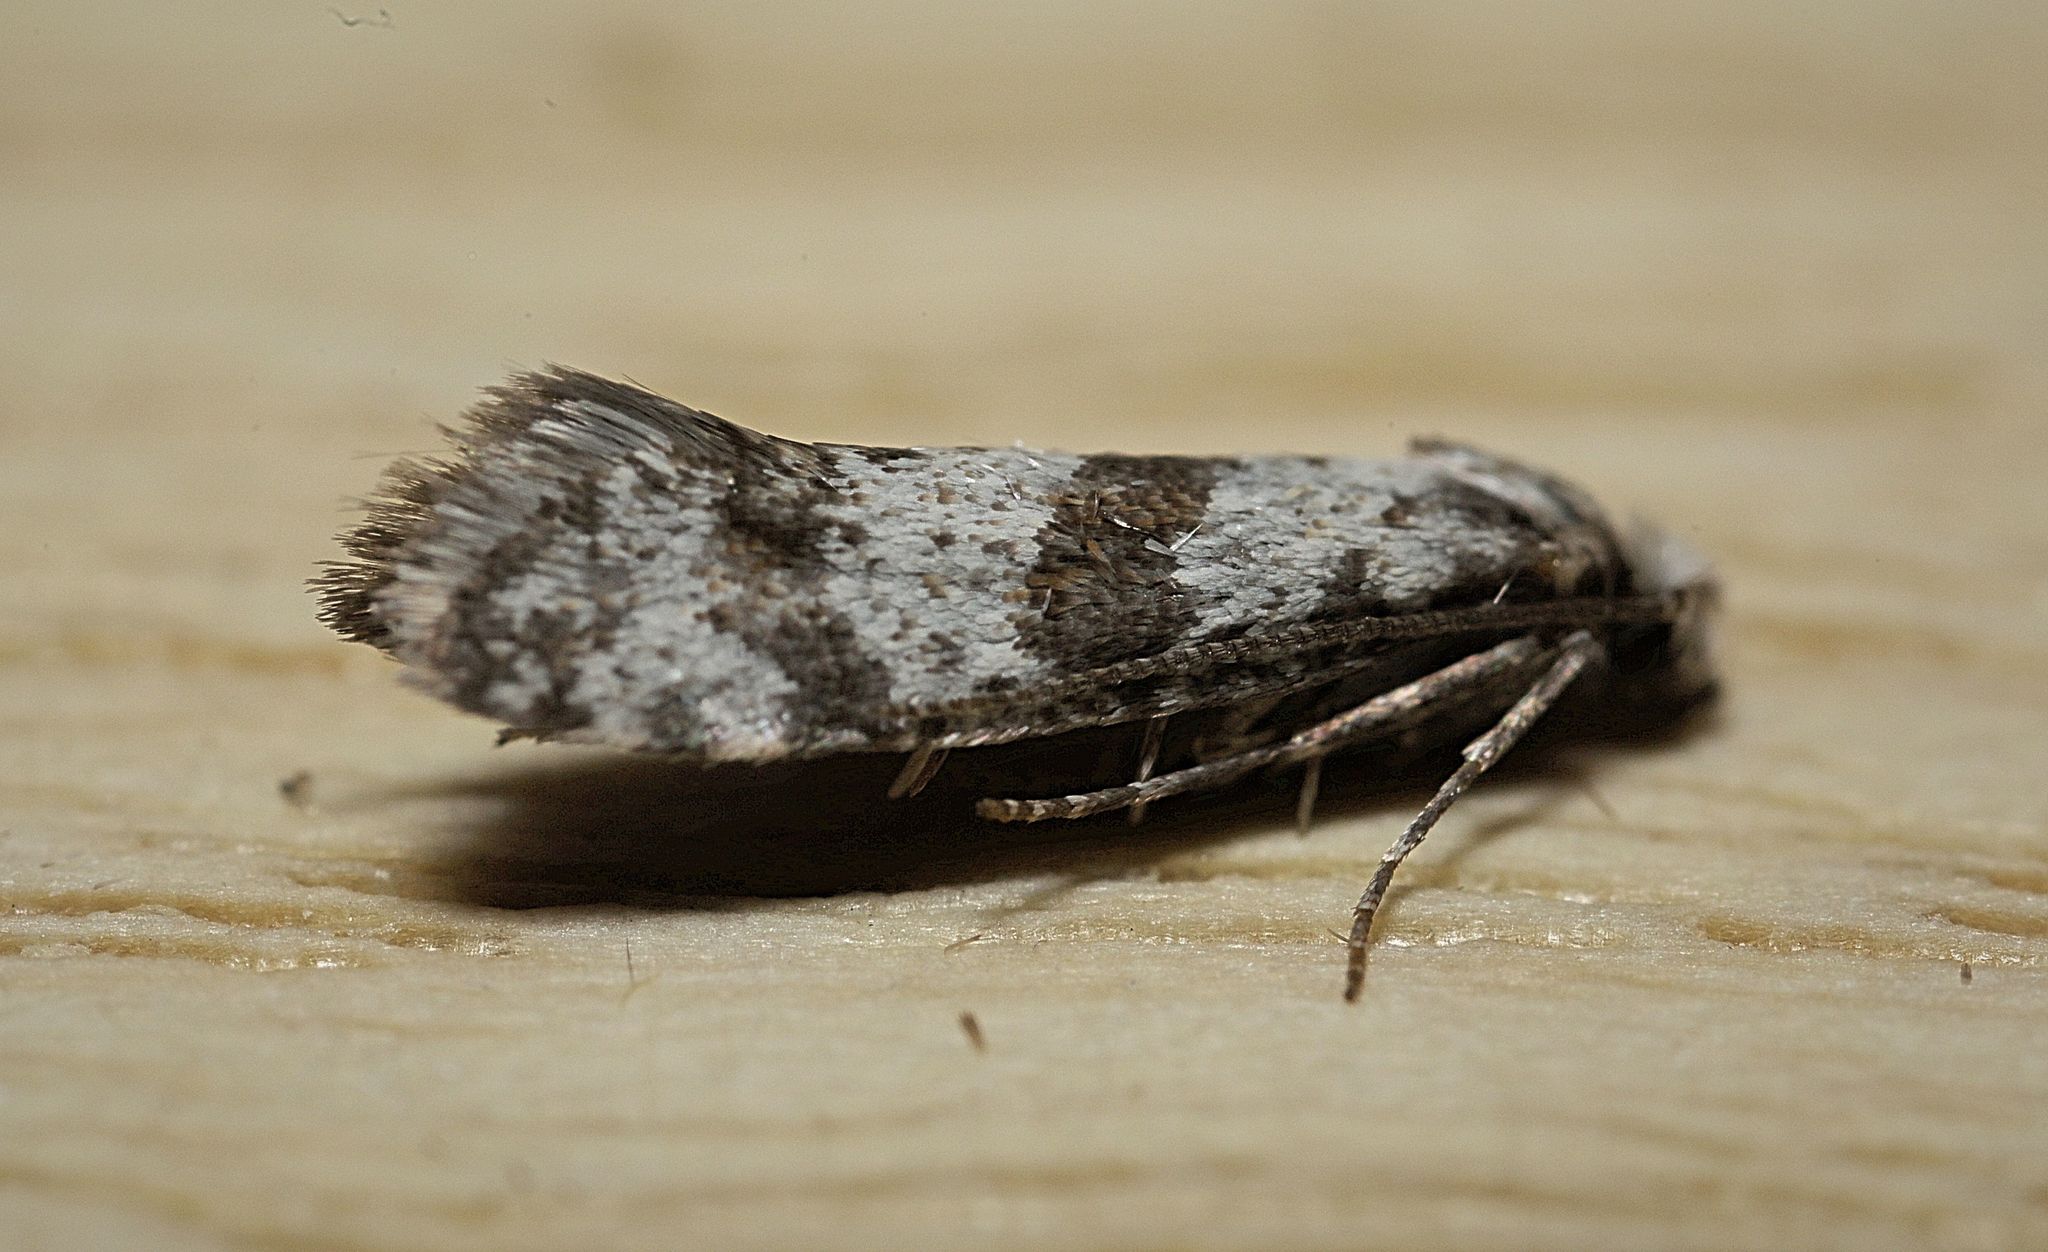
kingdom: Animalia
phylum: Arthropoda
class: Insecta
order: Lepidoptera
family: Yponomeutidae
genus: Scythropia
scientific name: Scythropia crataegella
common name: Hawthorn moth
